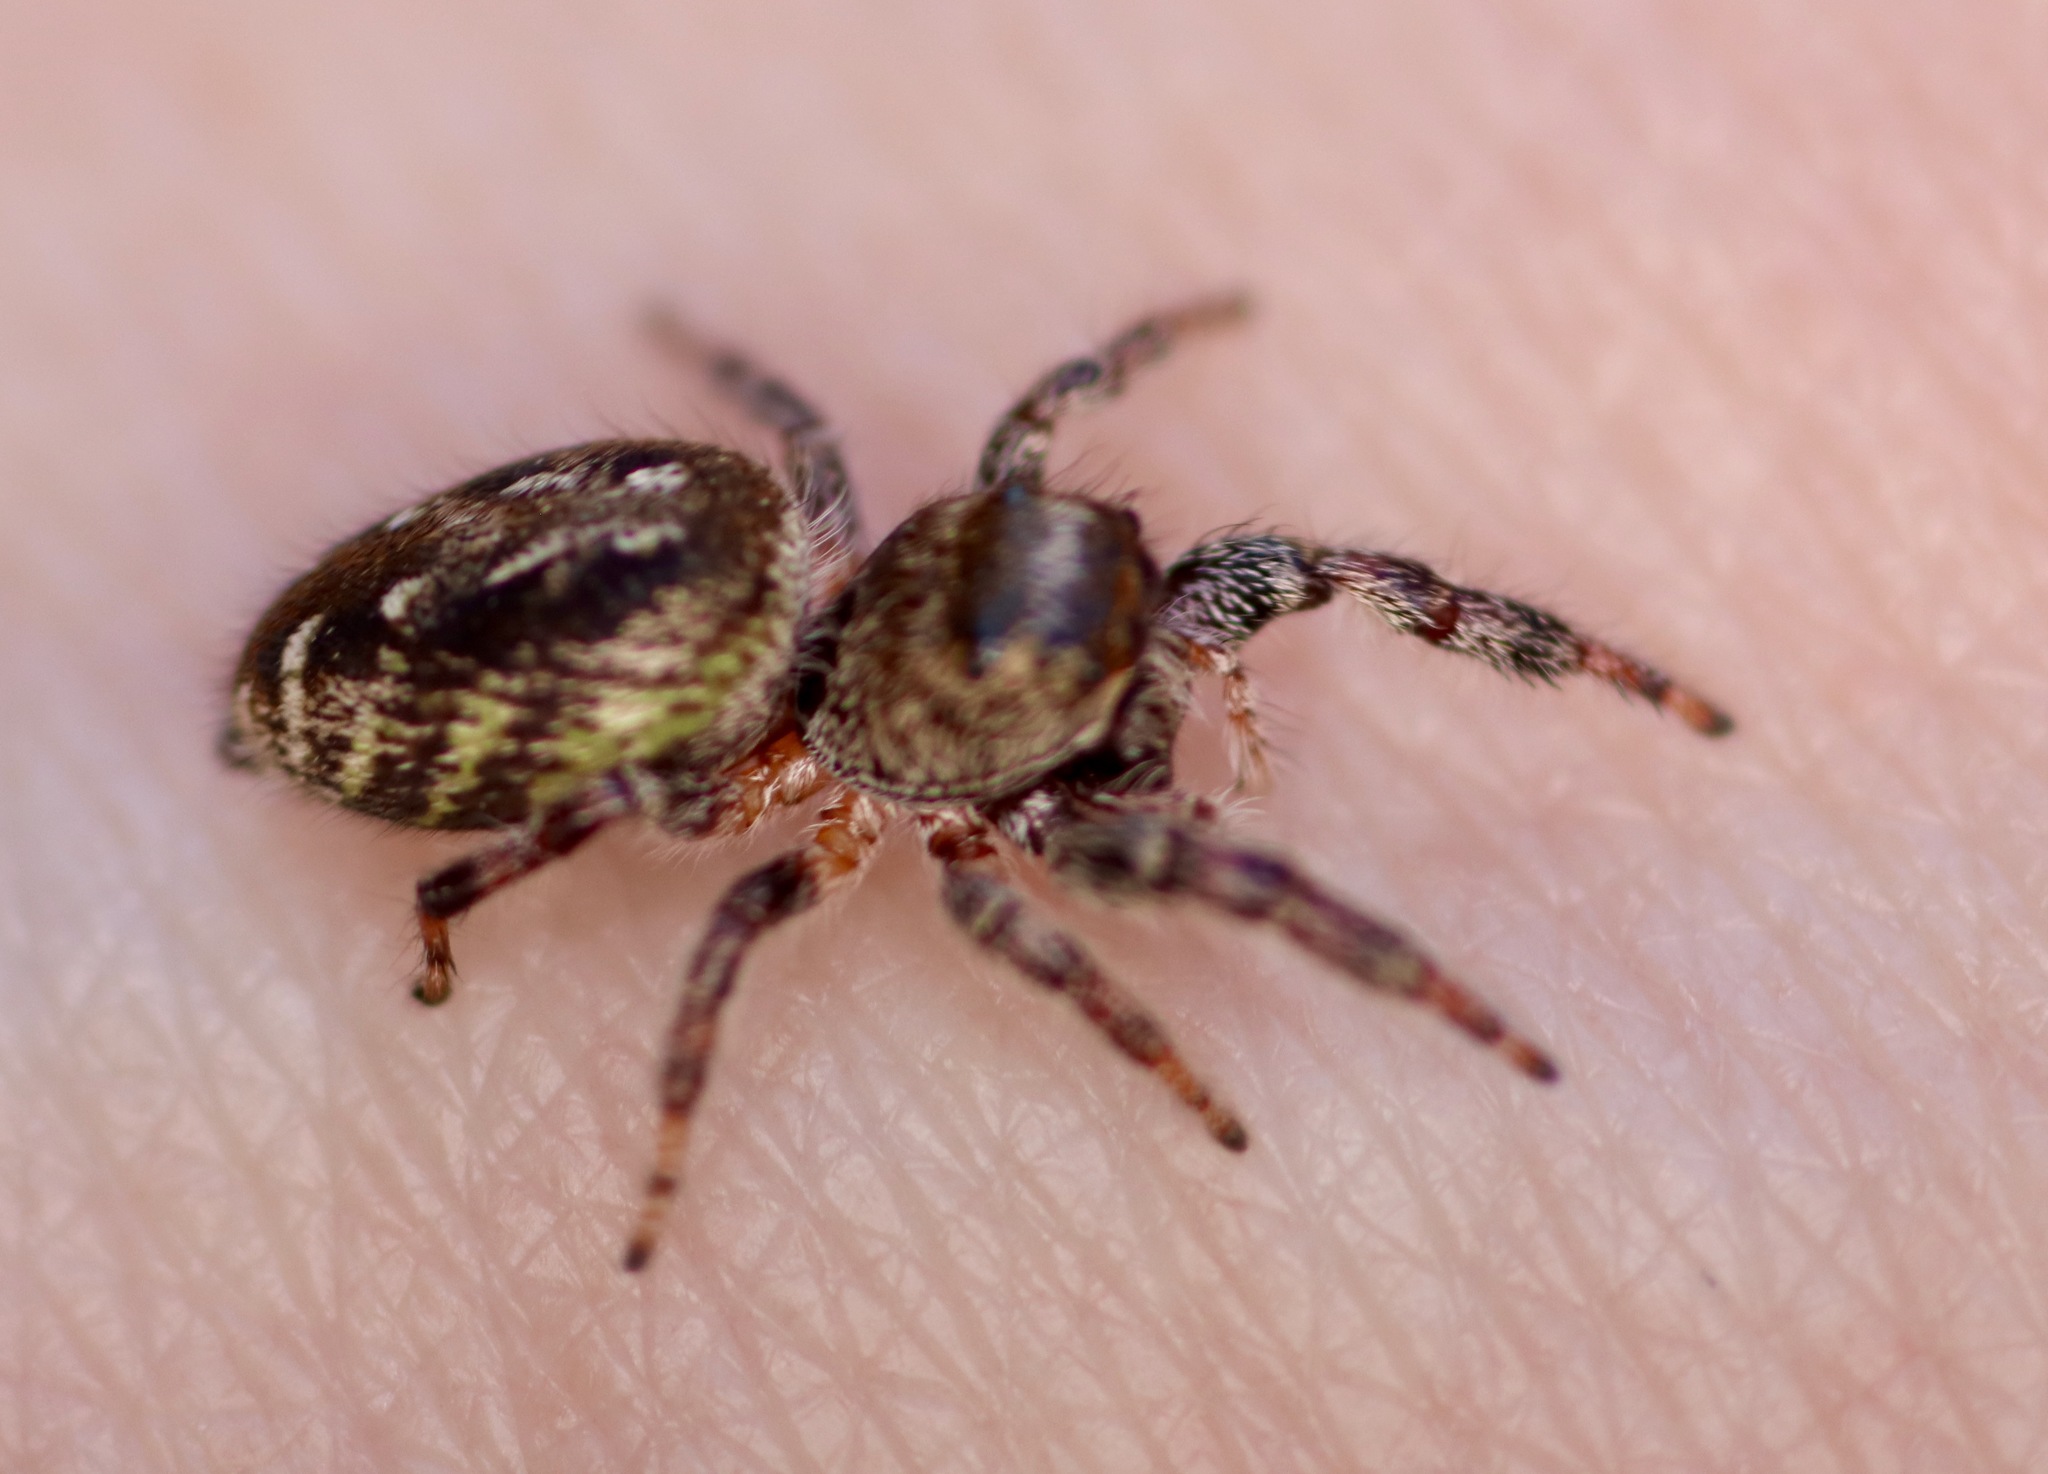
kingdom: Animalia
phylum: Arthropoda
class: Arachnida
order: Araneae
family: Salticidae
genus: Eris
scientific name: Eris militaris
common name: Bronze jumper
